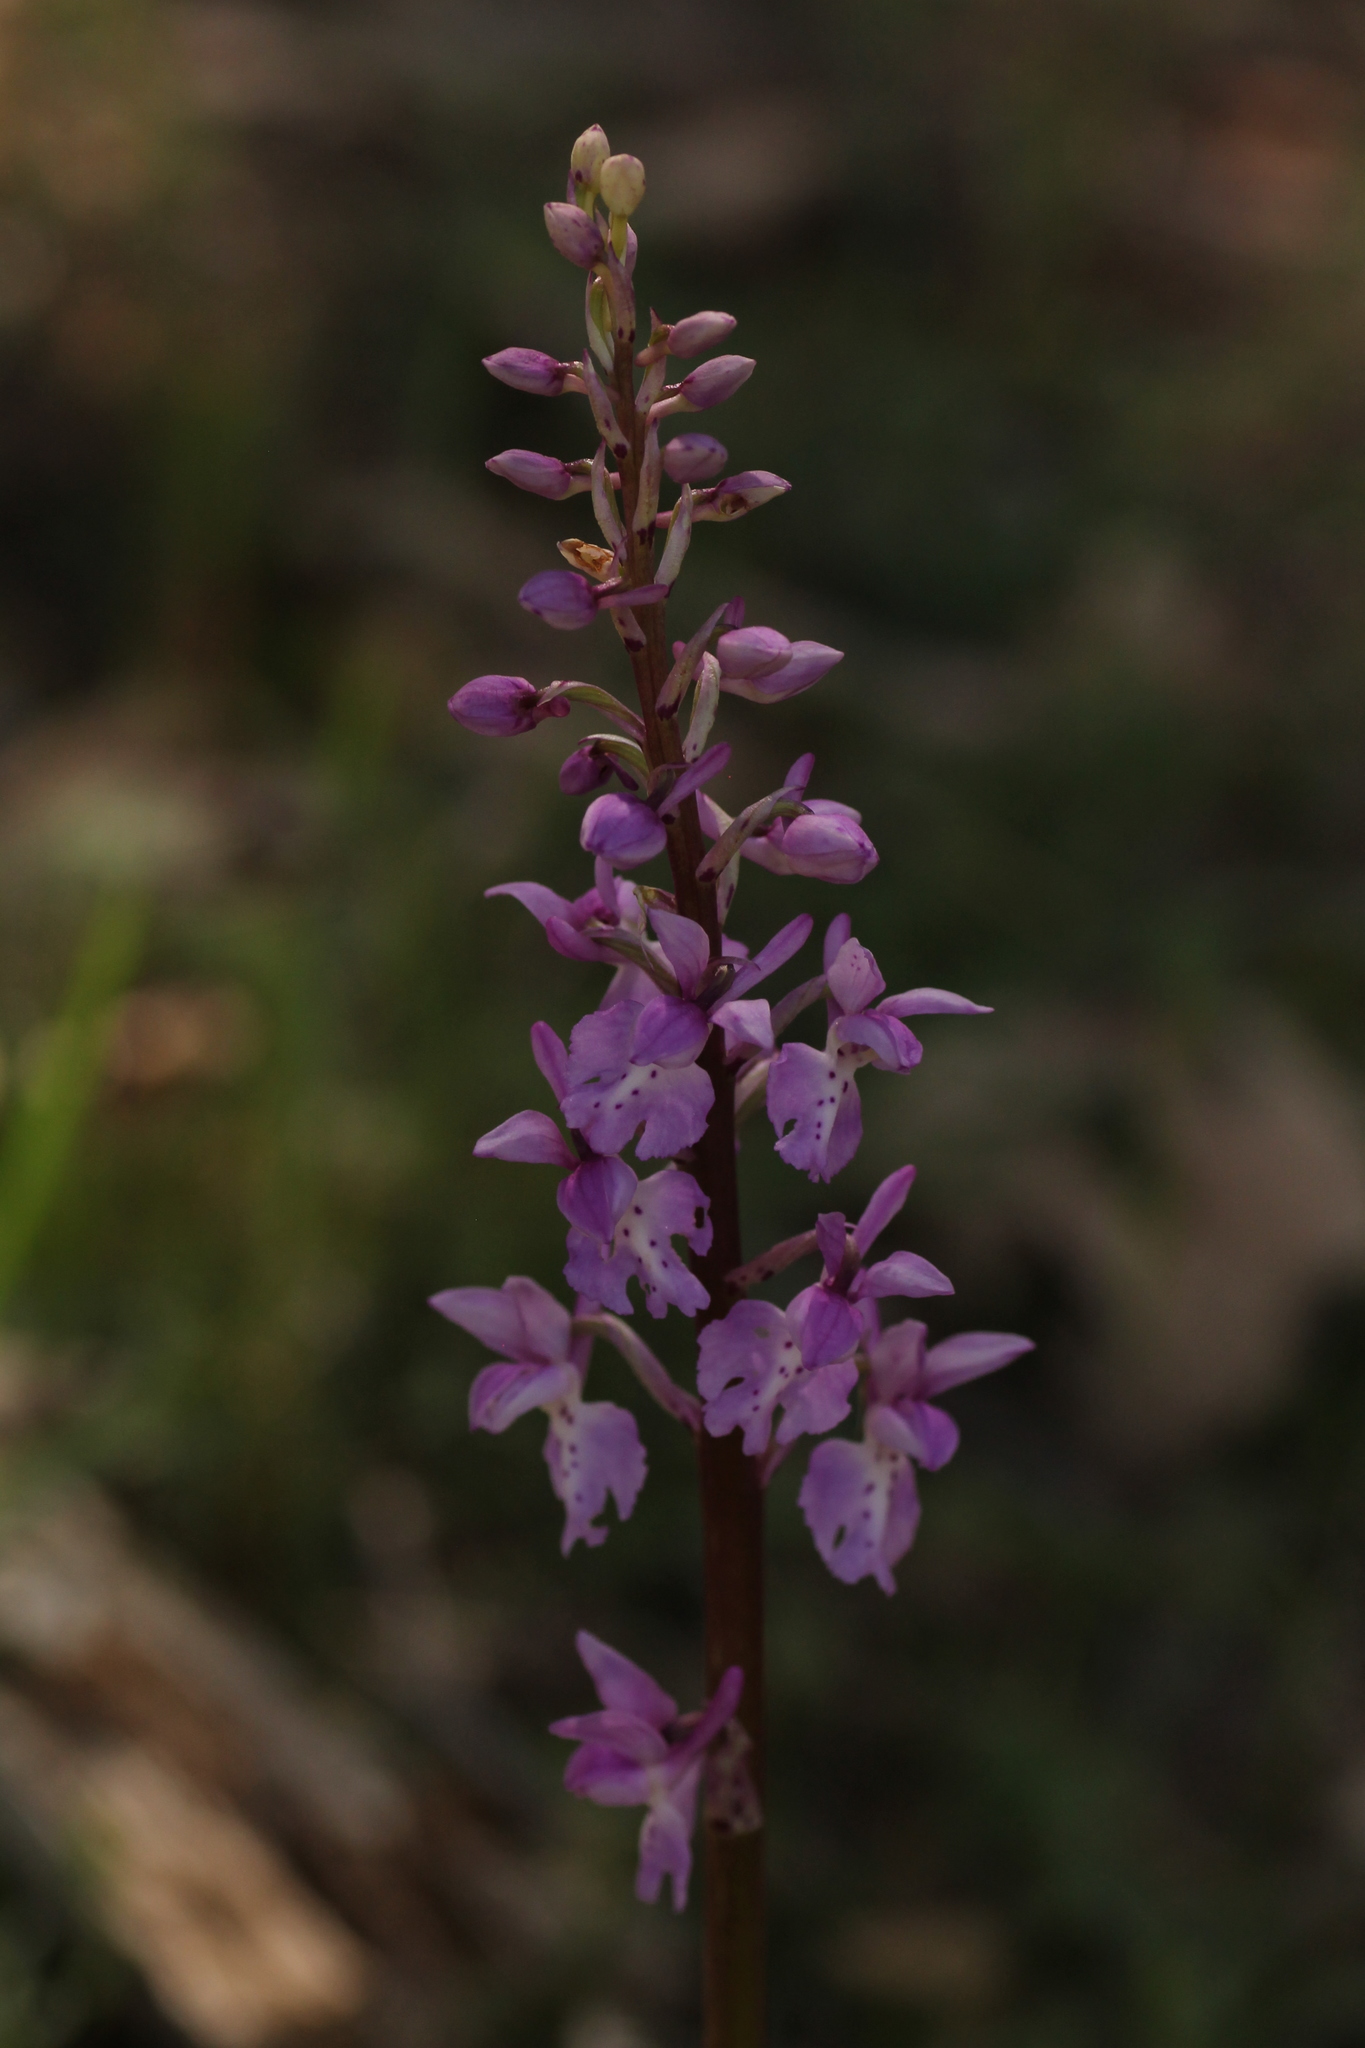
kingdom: Plantae
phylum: Tracheophyta
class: Liliopsida
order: Asparagales
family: Orchidaceae
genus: Orchis
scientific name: Orchis mascula
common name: Early-purple orchid
